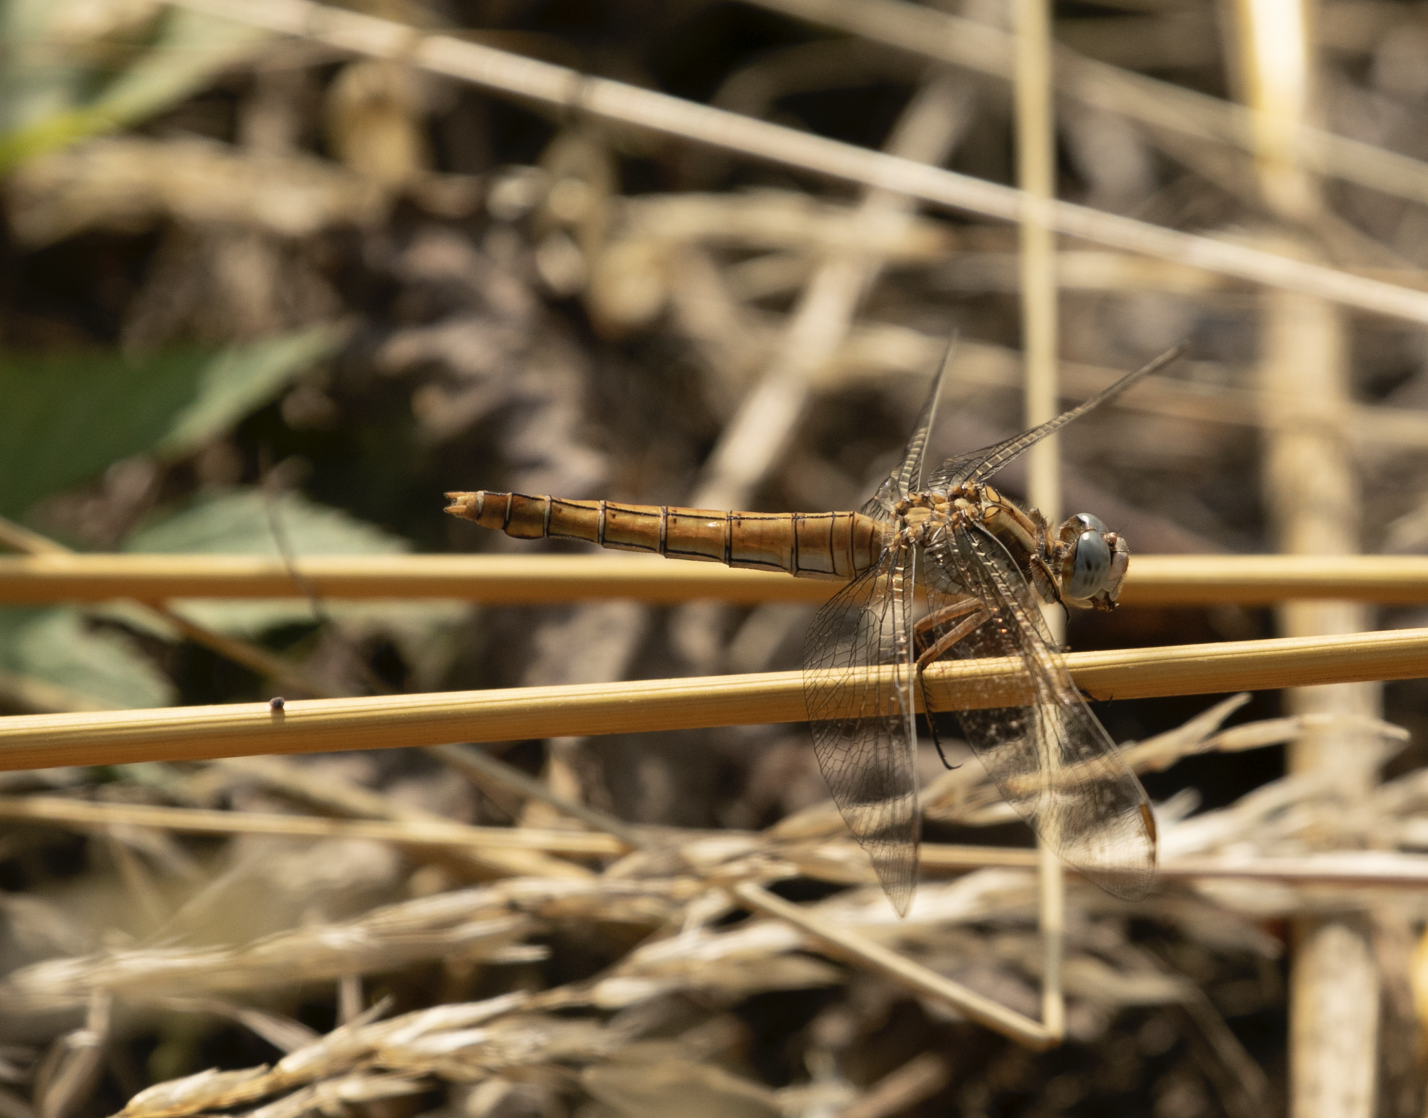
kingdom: Animalia
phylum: Arthropoda
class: Insecta
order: Odonata
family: Libellulidae
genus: Orthetrum
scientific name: Orthetrum brunneum
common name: Southern skimmer
